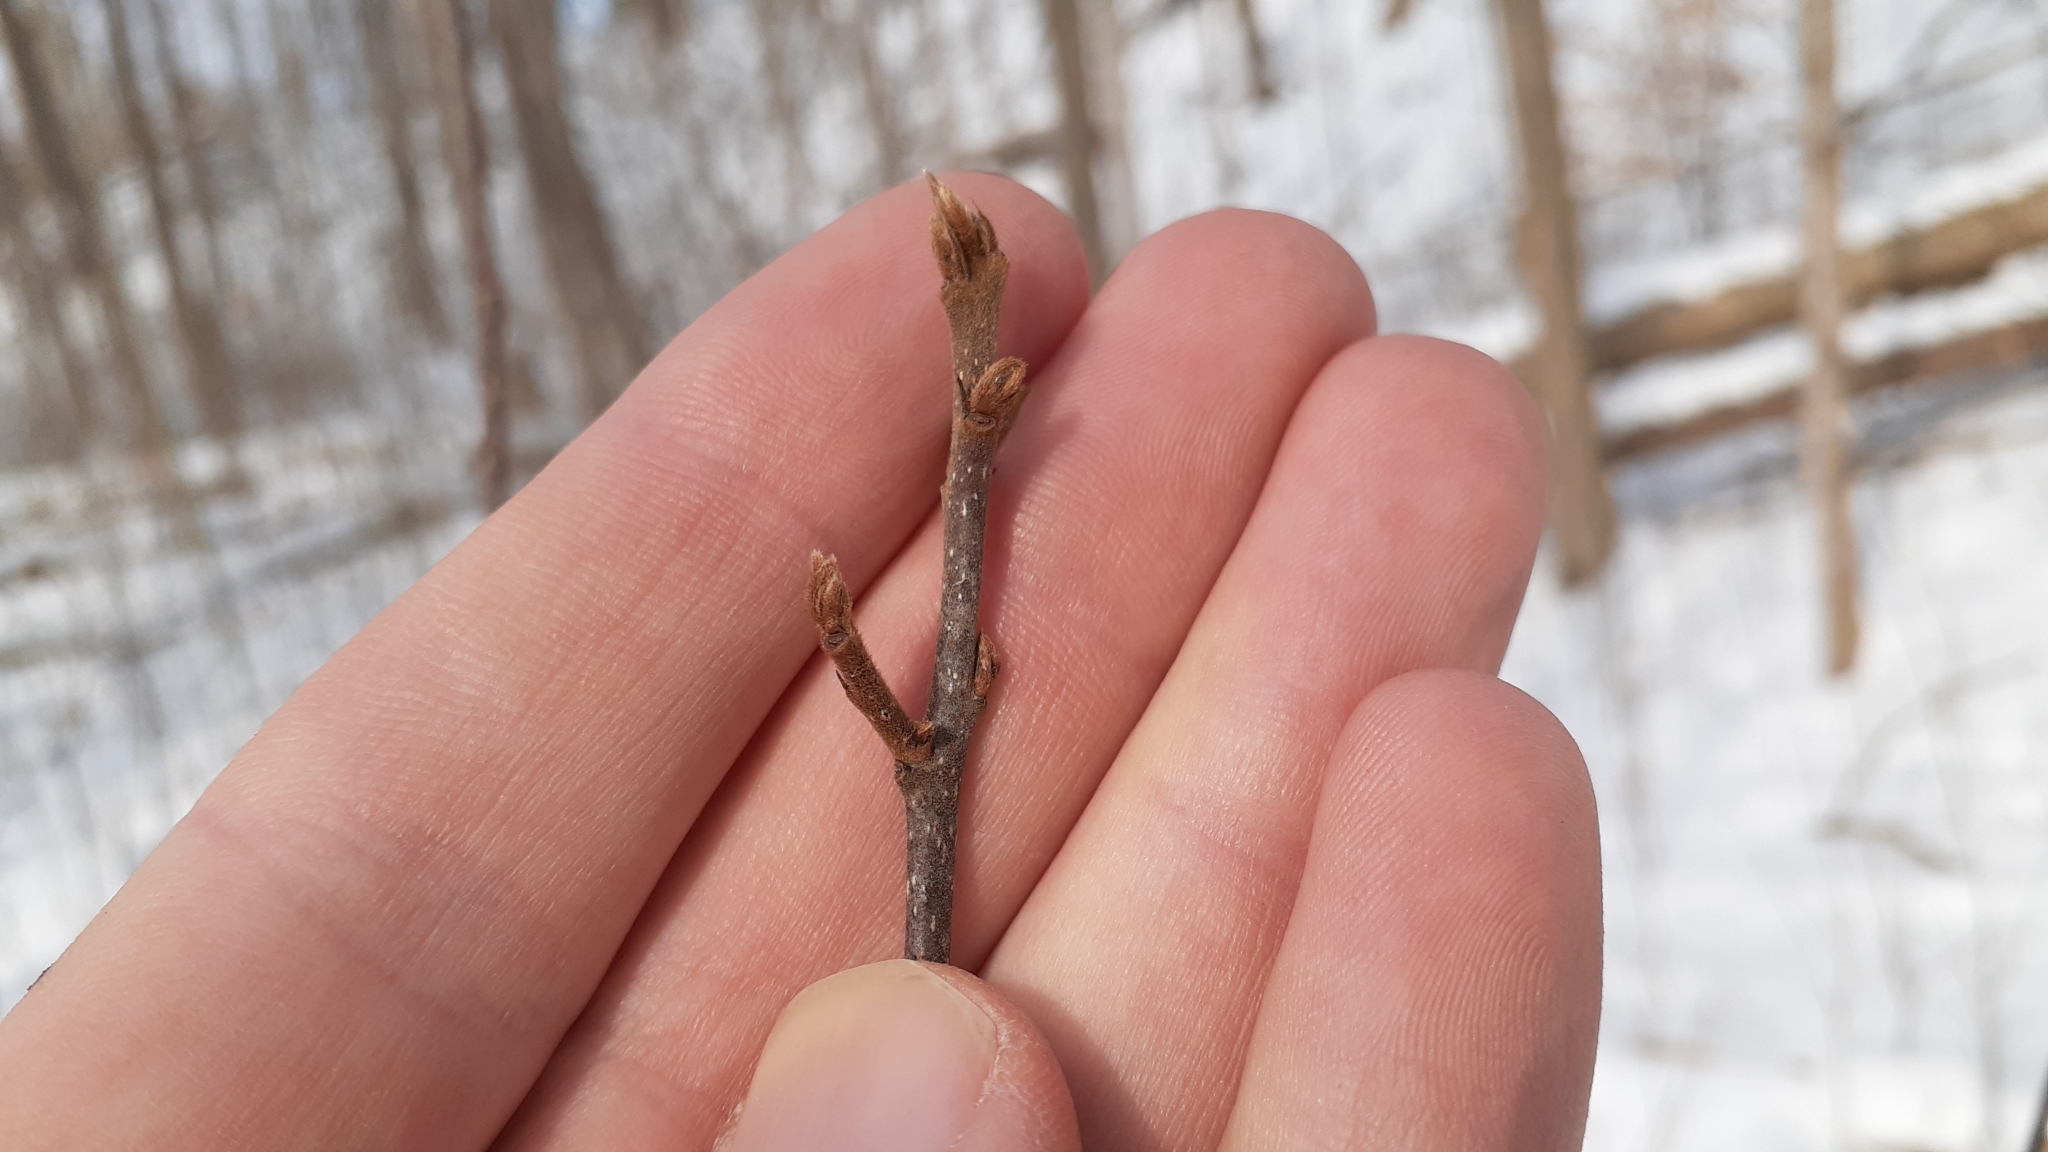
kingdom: Plantae
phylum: Tracheophyta
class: Magnoliopsida
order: Rosales
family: Rhamnaceae
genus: Frangula
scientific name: Frangula alnus
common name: Alder buckthorn
